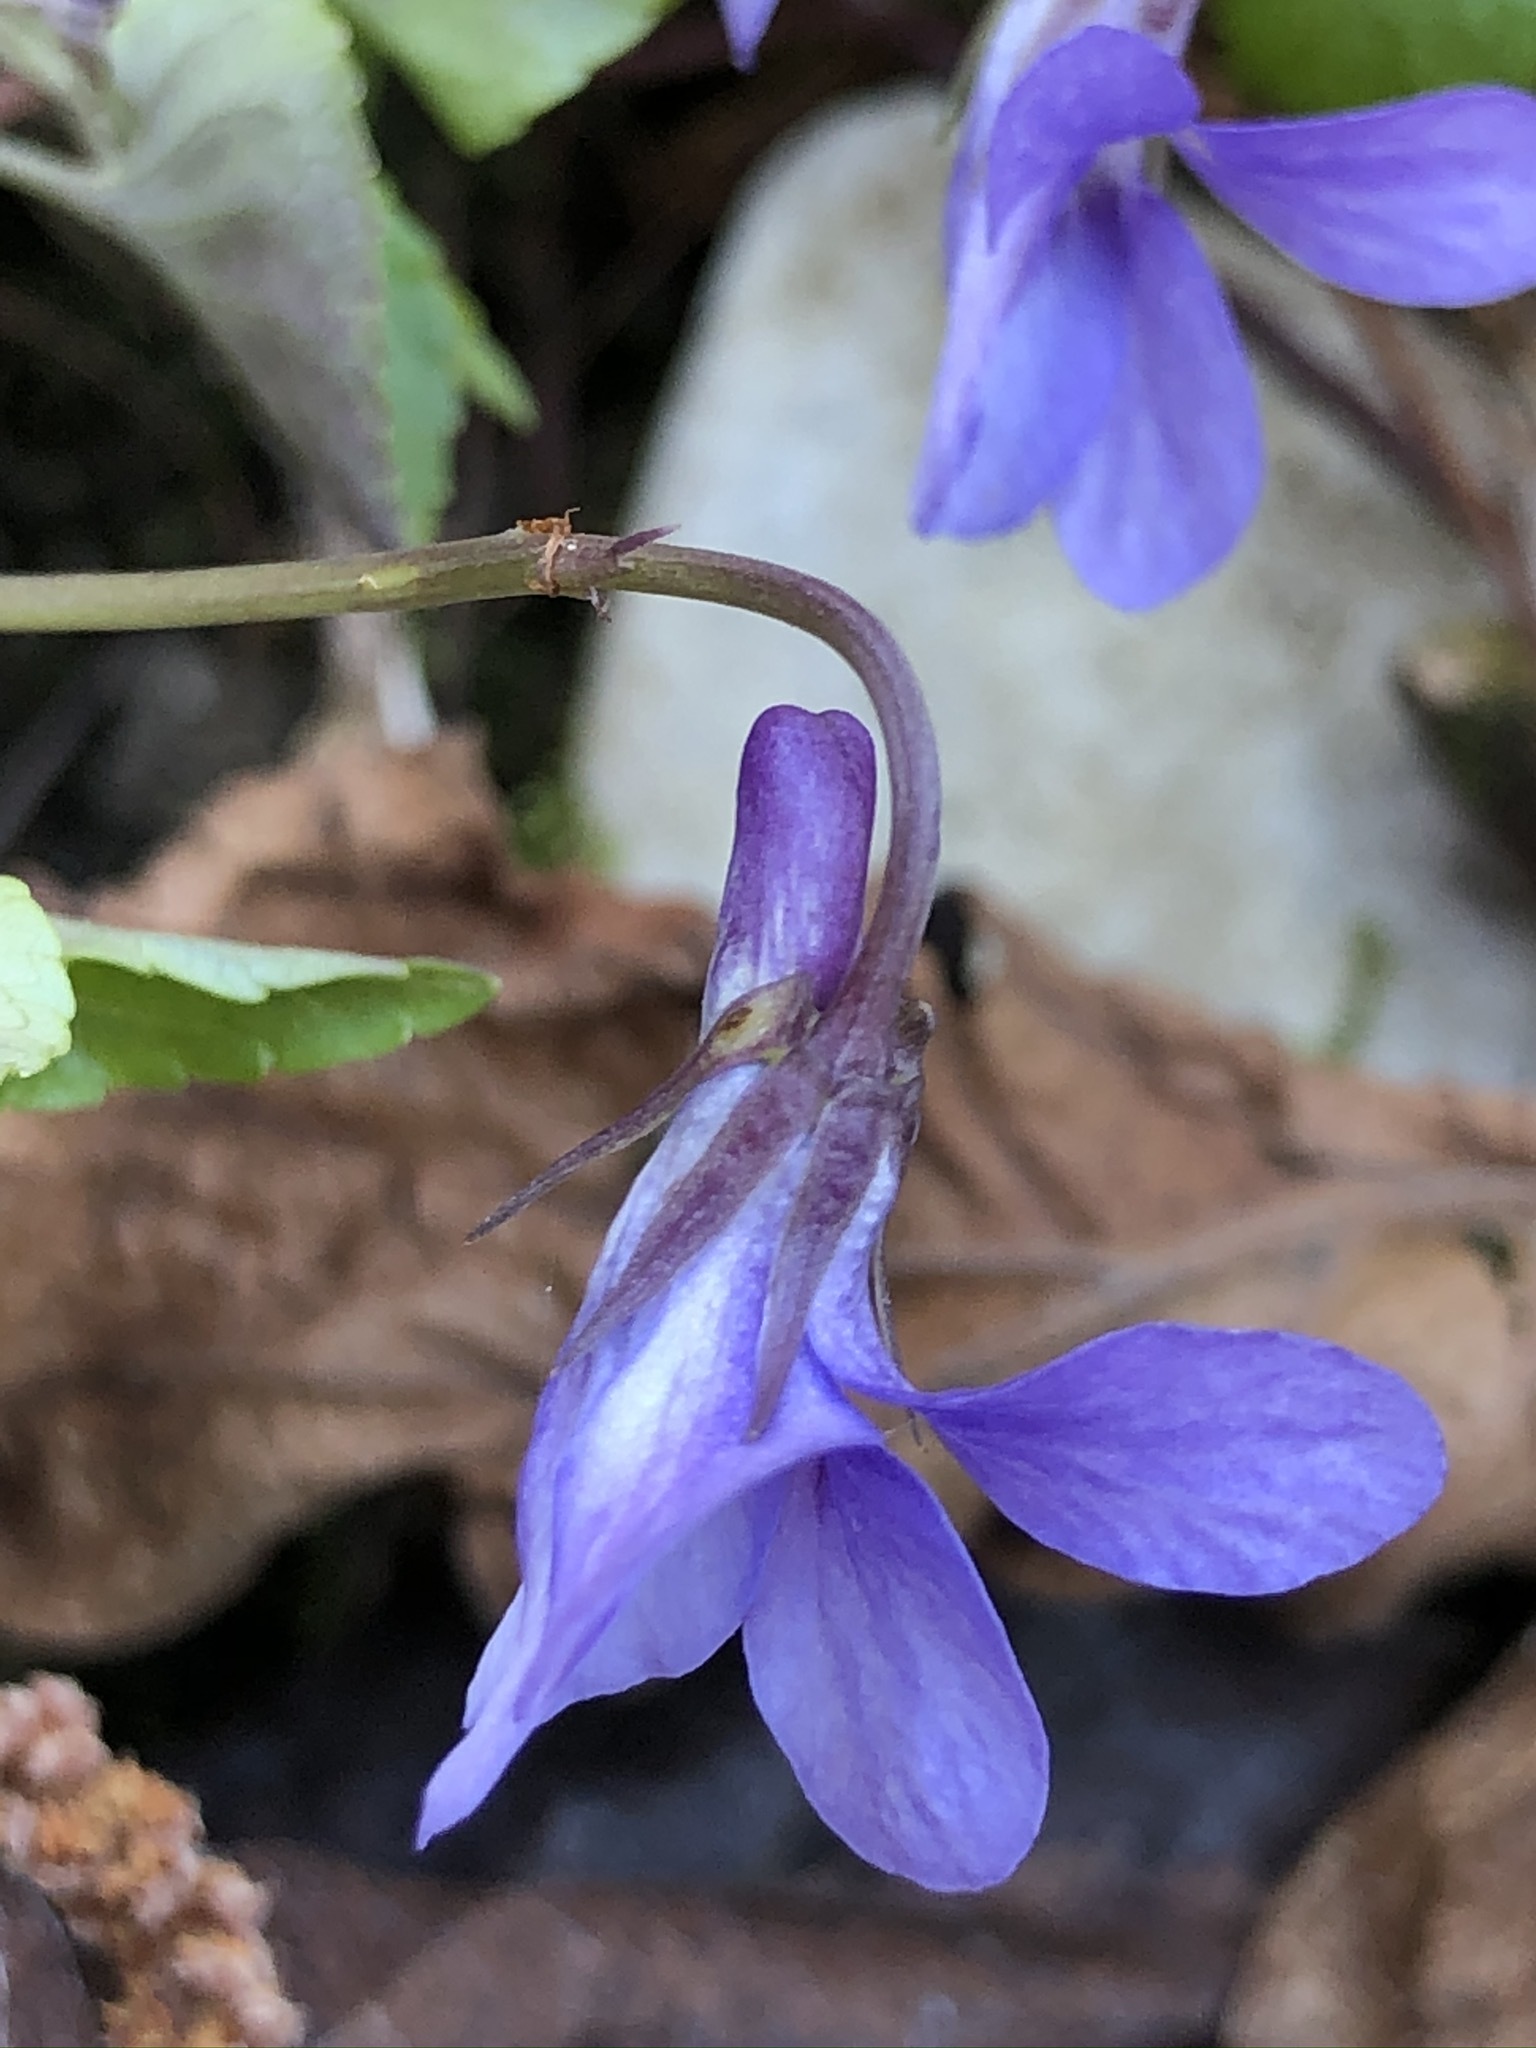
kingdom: Plantae
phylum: Tracheophyta
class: Magnoliopsida
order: Malpighiales
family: Violaceae
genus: Viola
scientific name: Viola reichenbachiana
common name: Early dog-violet
